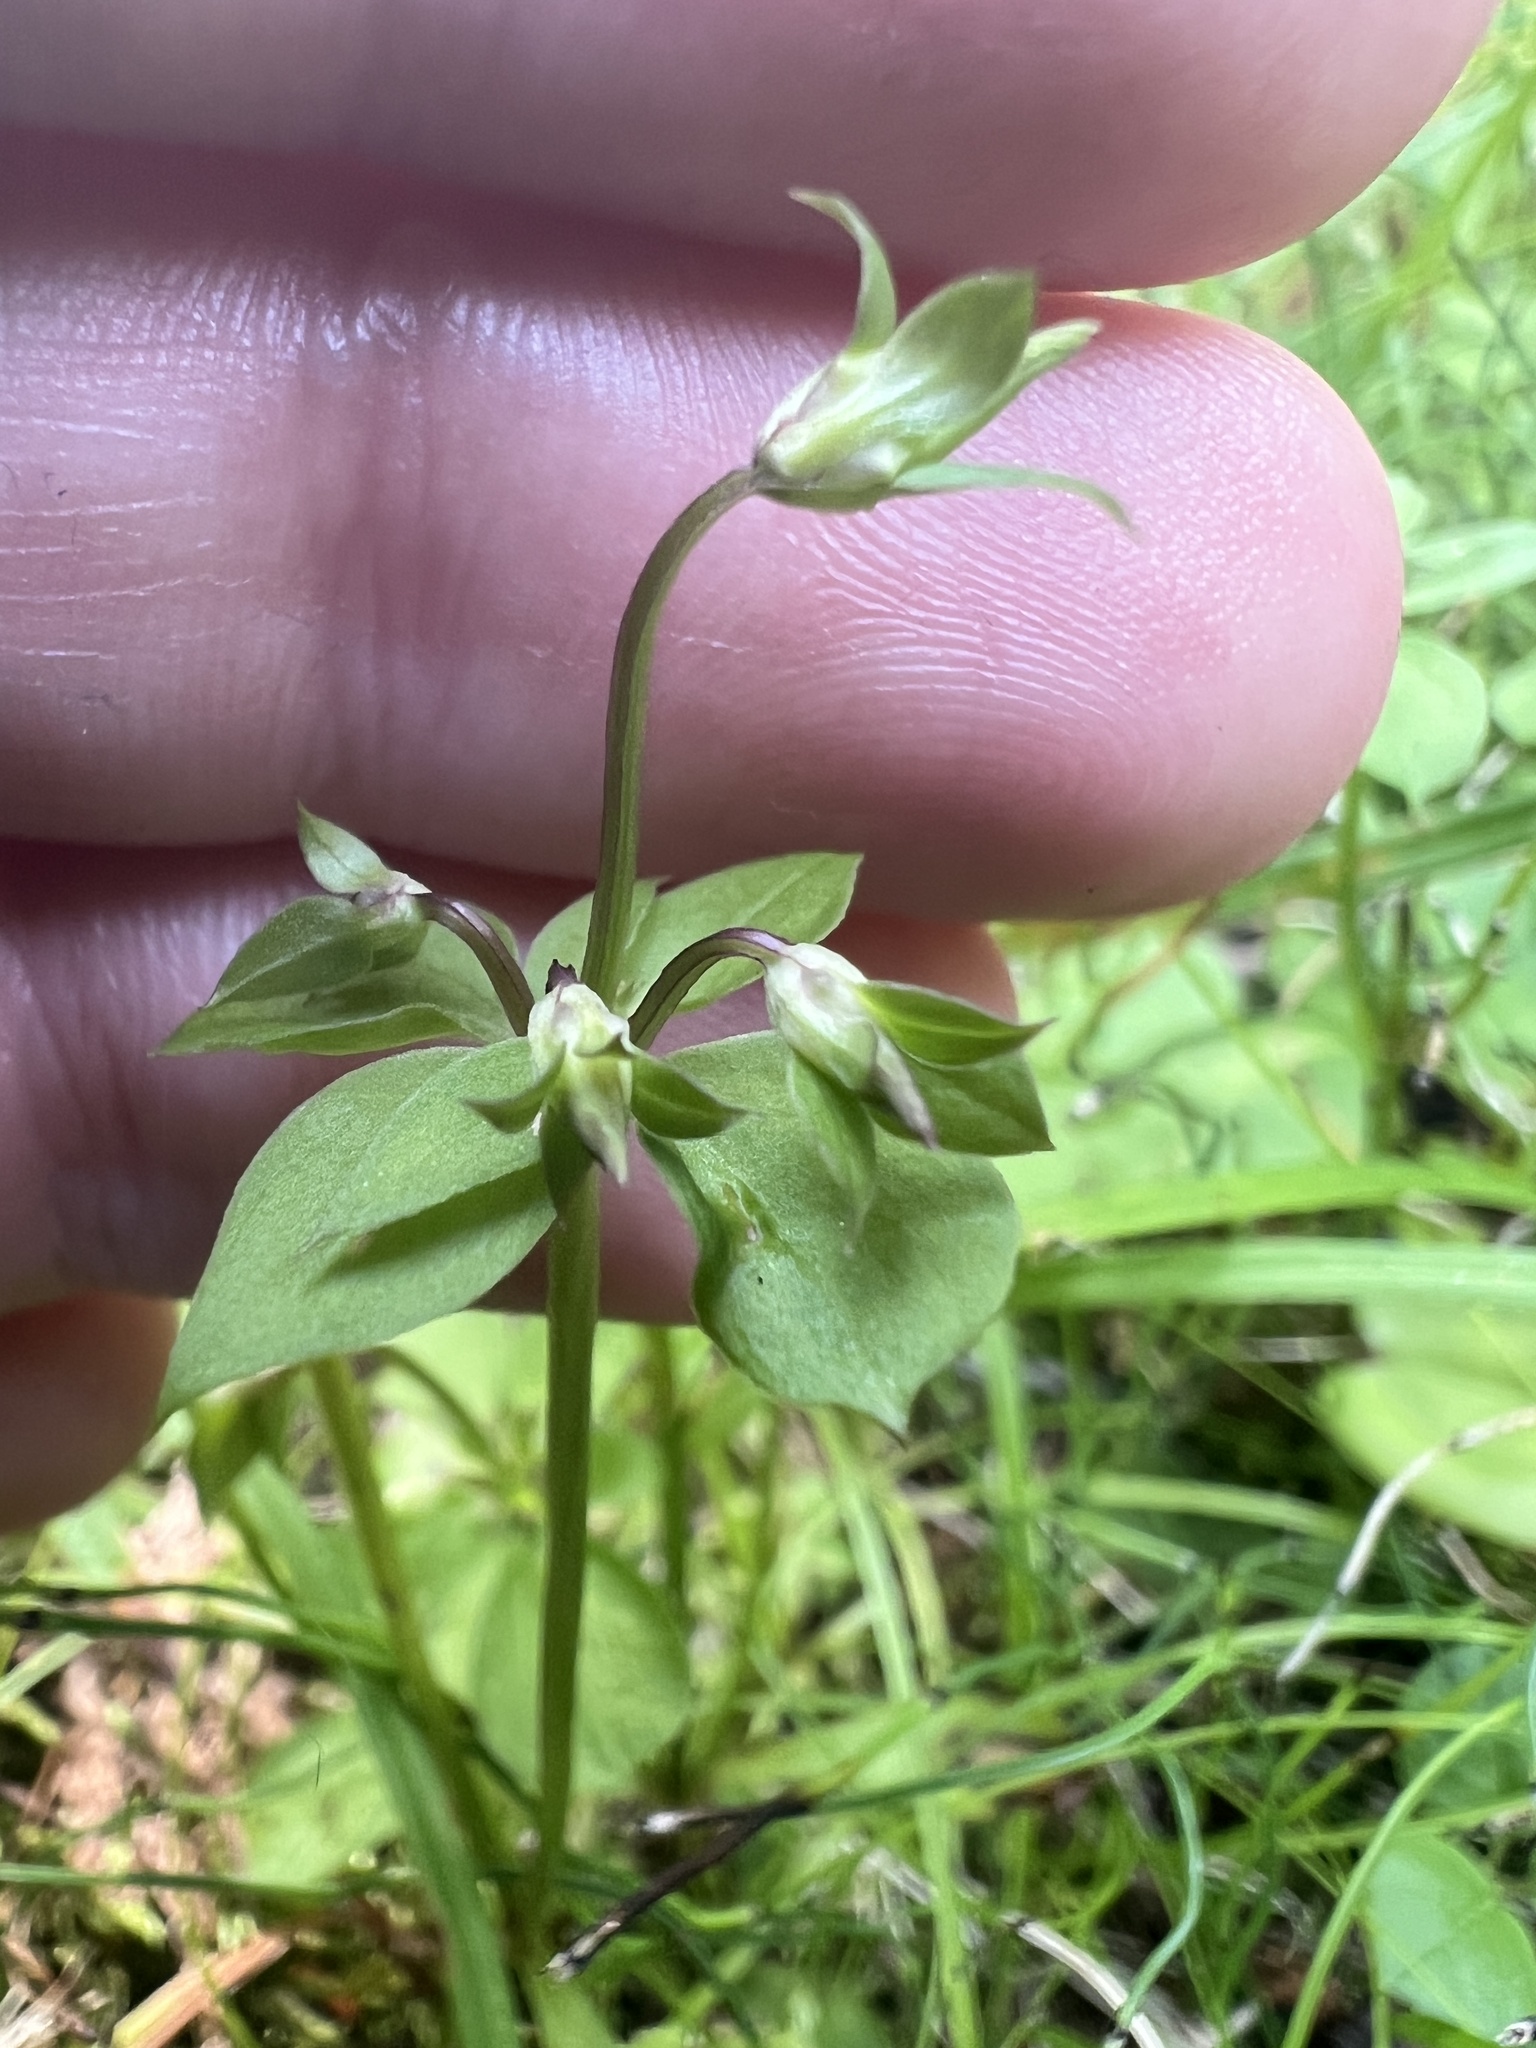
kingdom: Plantae
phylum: Tracheophyta
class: Magnoliopsida
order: Gentianales
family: Gentianaceae
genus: Halenia
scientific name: Halenia deflexa
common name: American spurred gentian
